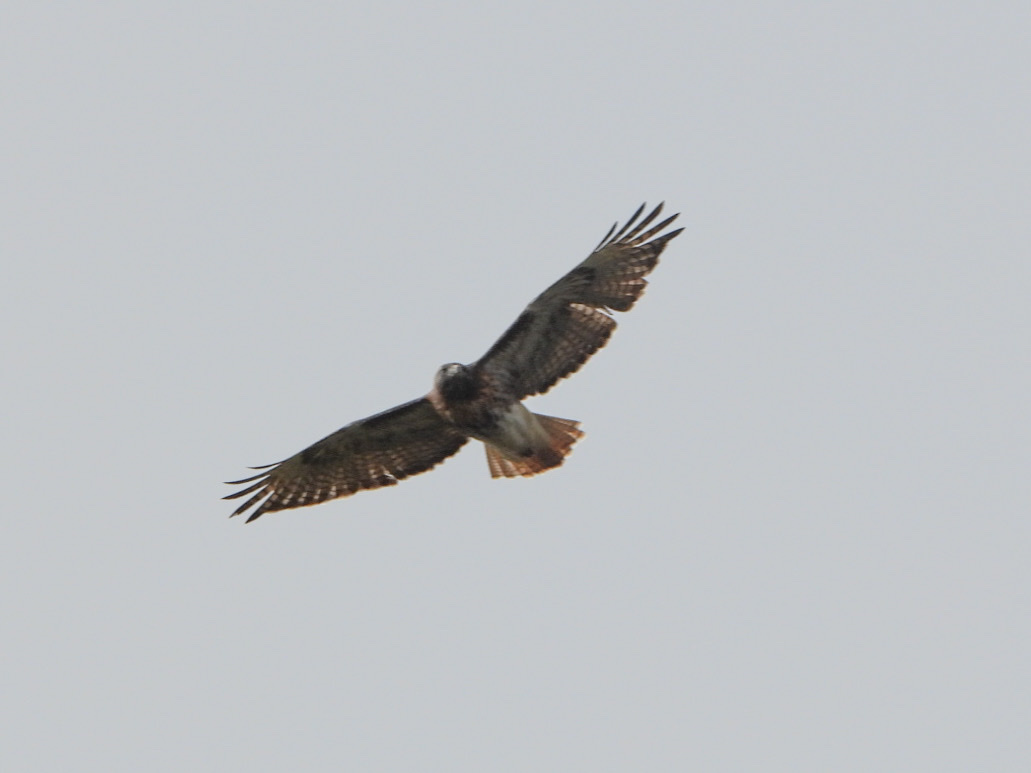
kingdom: Animalia
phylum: Chordata
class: Aves
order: Accipitriformes
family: Accipitridae
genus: Buteo
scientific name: Buteo jamaicensis
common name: Red-tailed hawk
